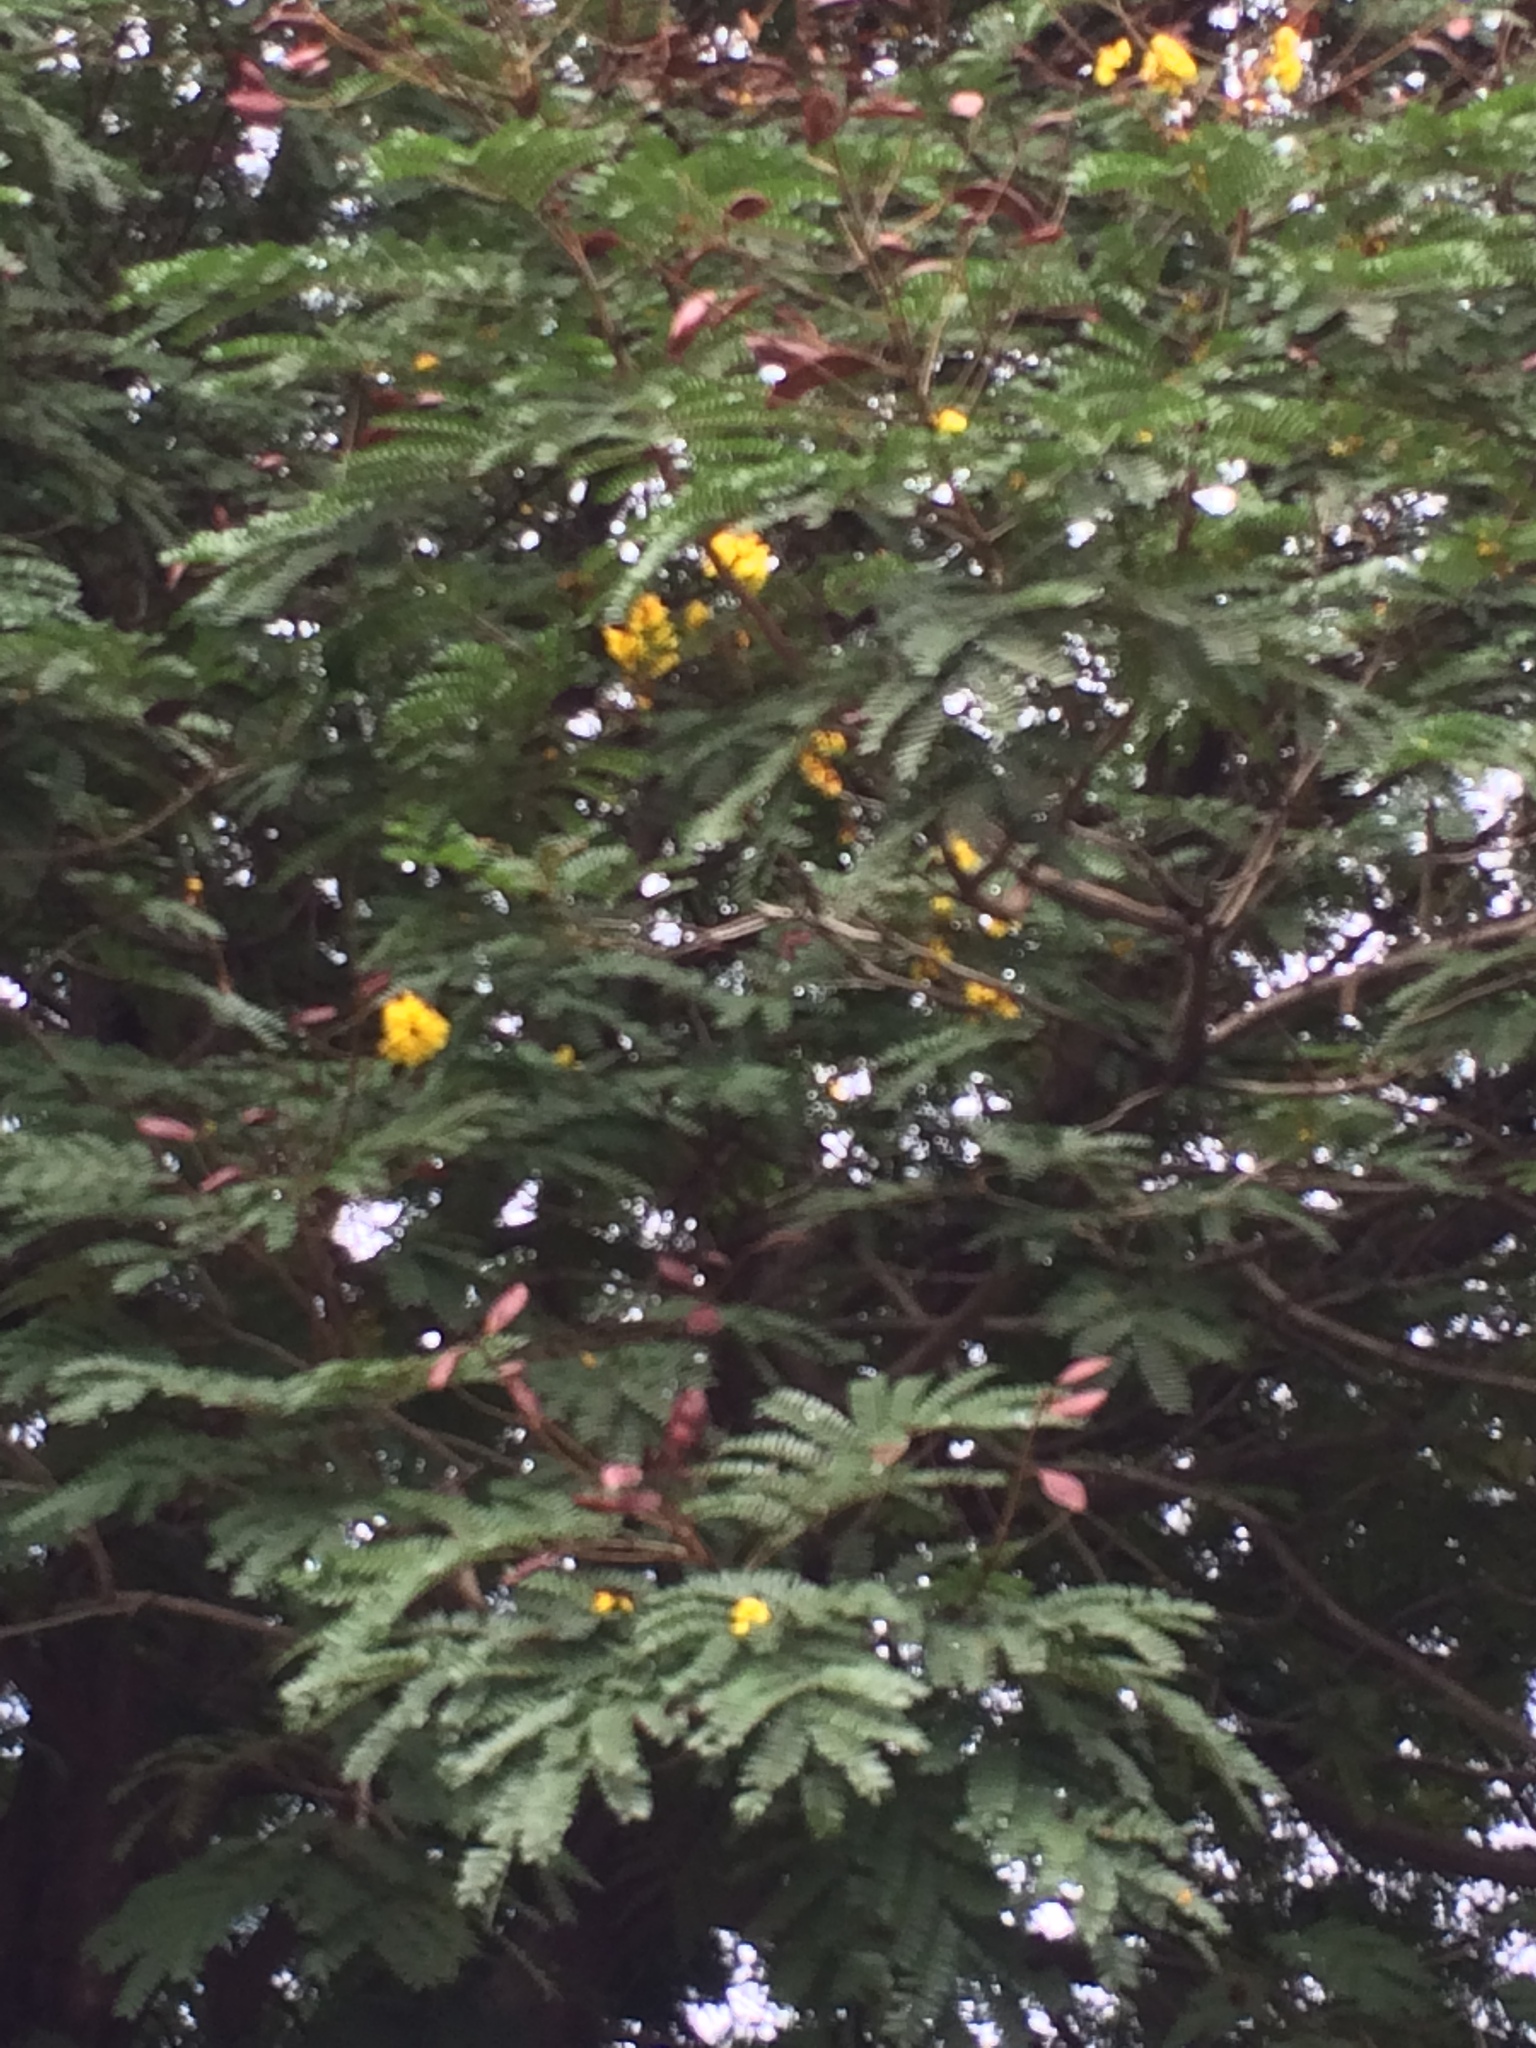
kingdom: Plantae
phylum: Tracheophyta
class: Magnoliopsida
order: Fabales
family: Fabaceae
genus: Peltophorum
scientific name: Peltophorum pterocarpum
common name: Yellow flame
